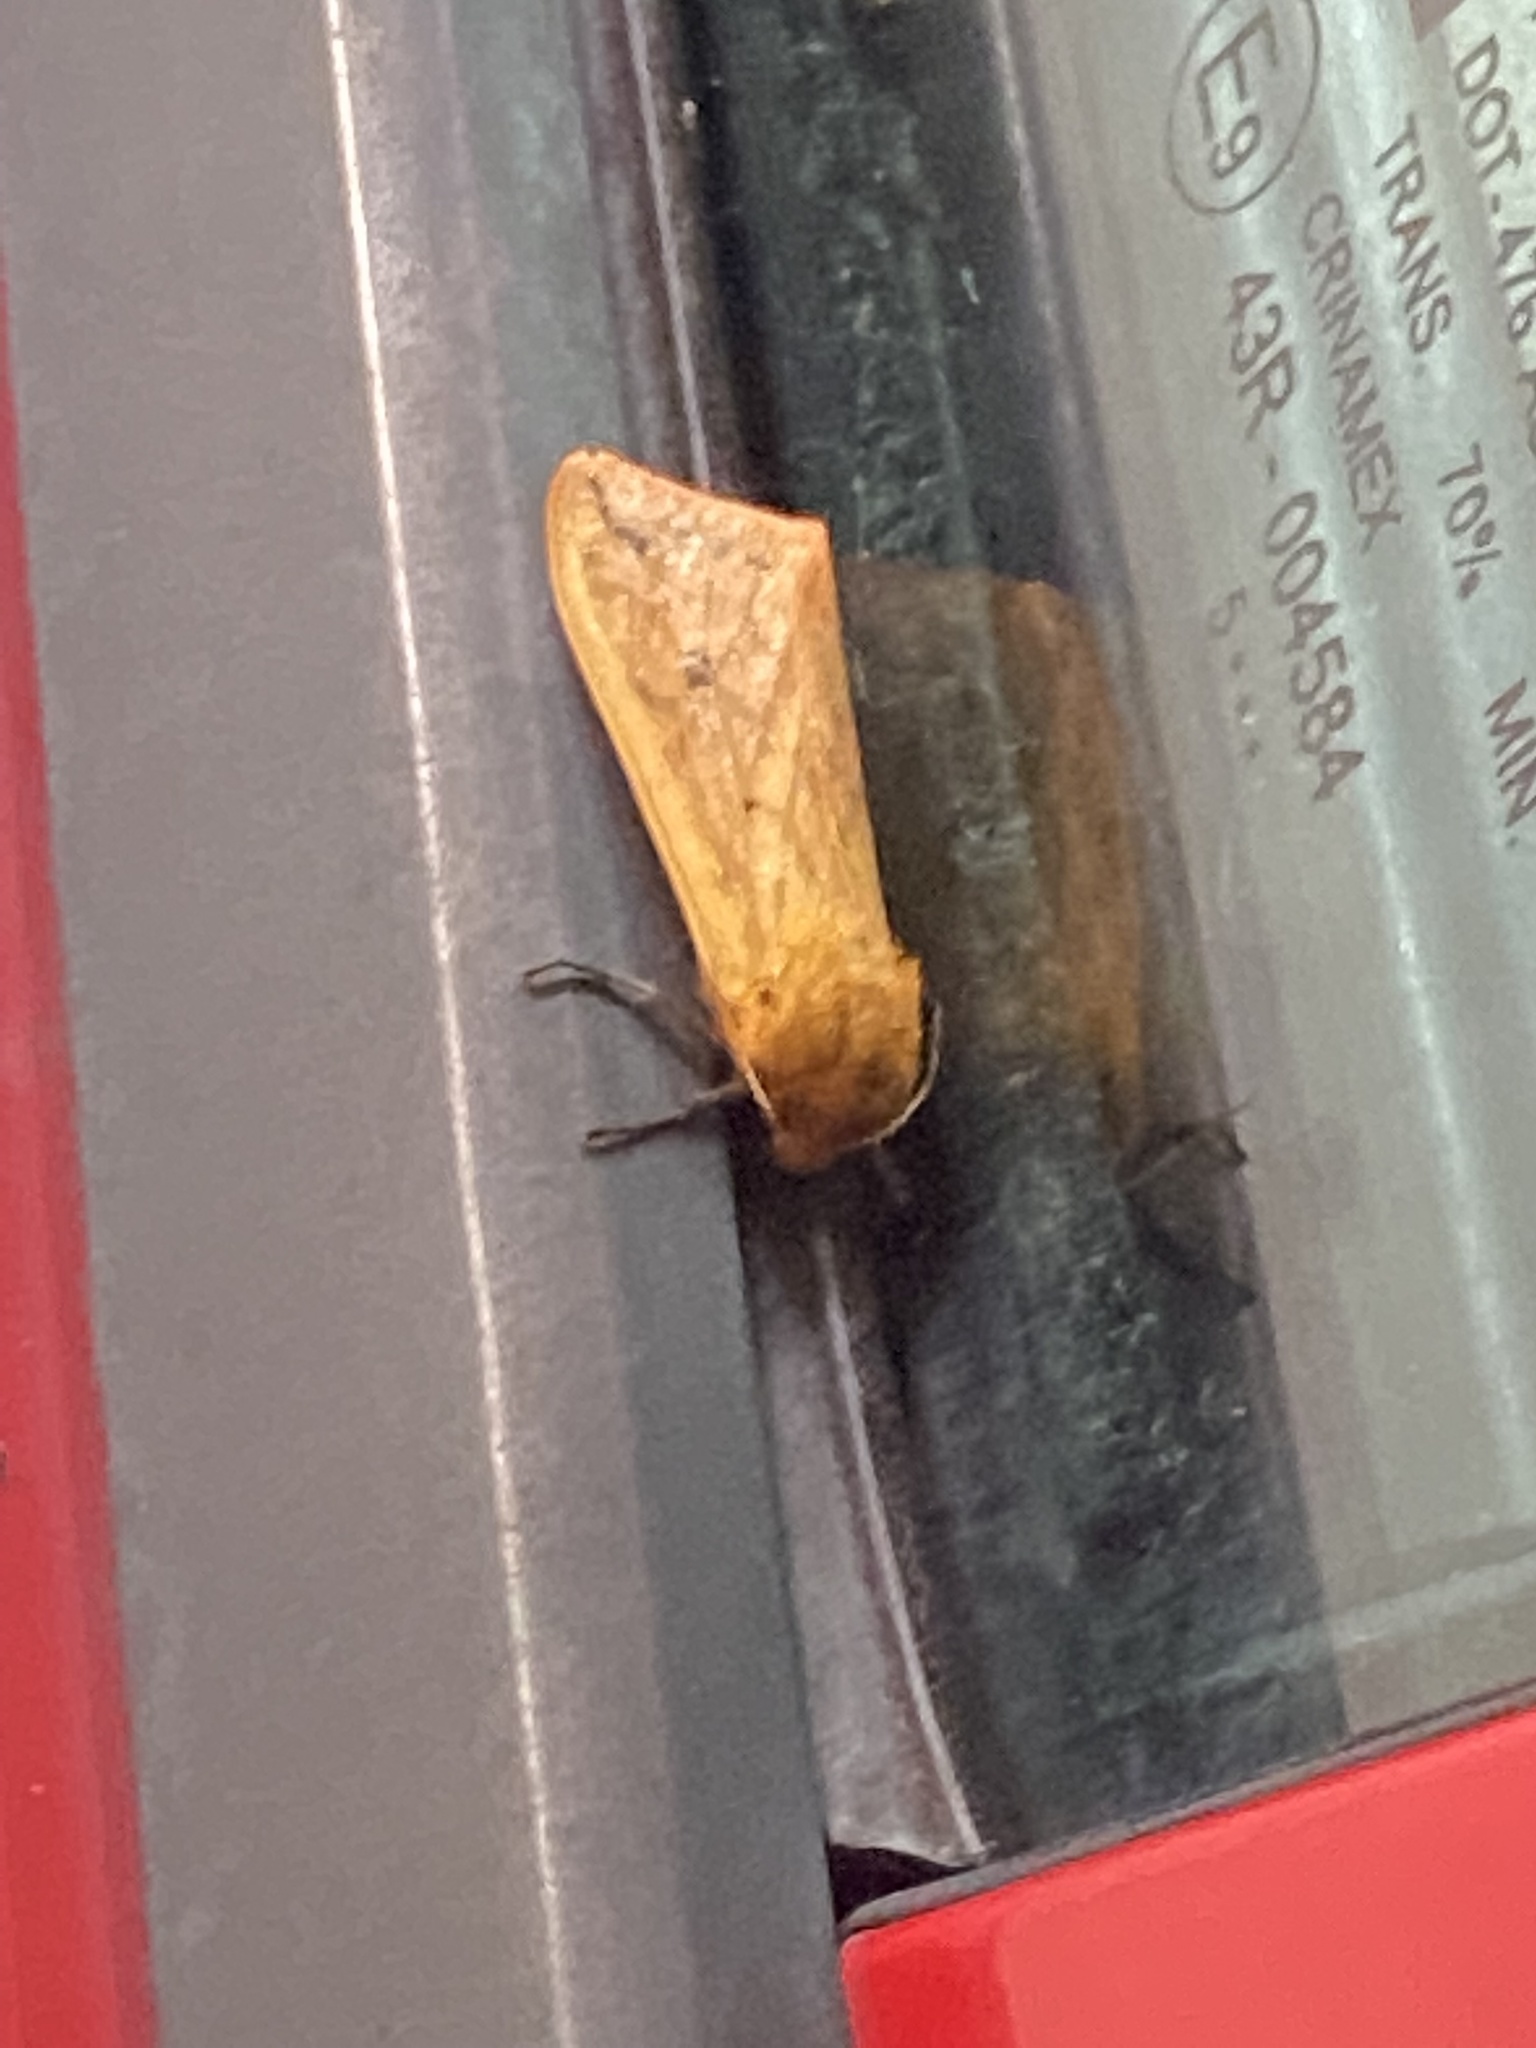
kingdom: Animalia
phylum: Arthropoda
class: Insecta
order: Lepidoptera
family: Erebidae
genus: Pyrrharctia
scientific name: Pyrrharctia isabella
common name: Isabella tiger moth
